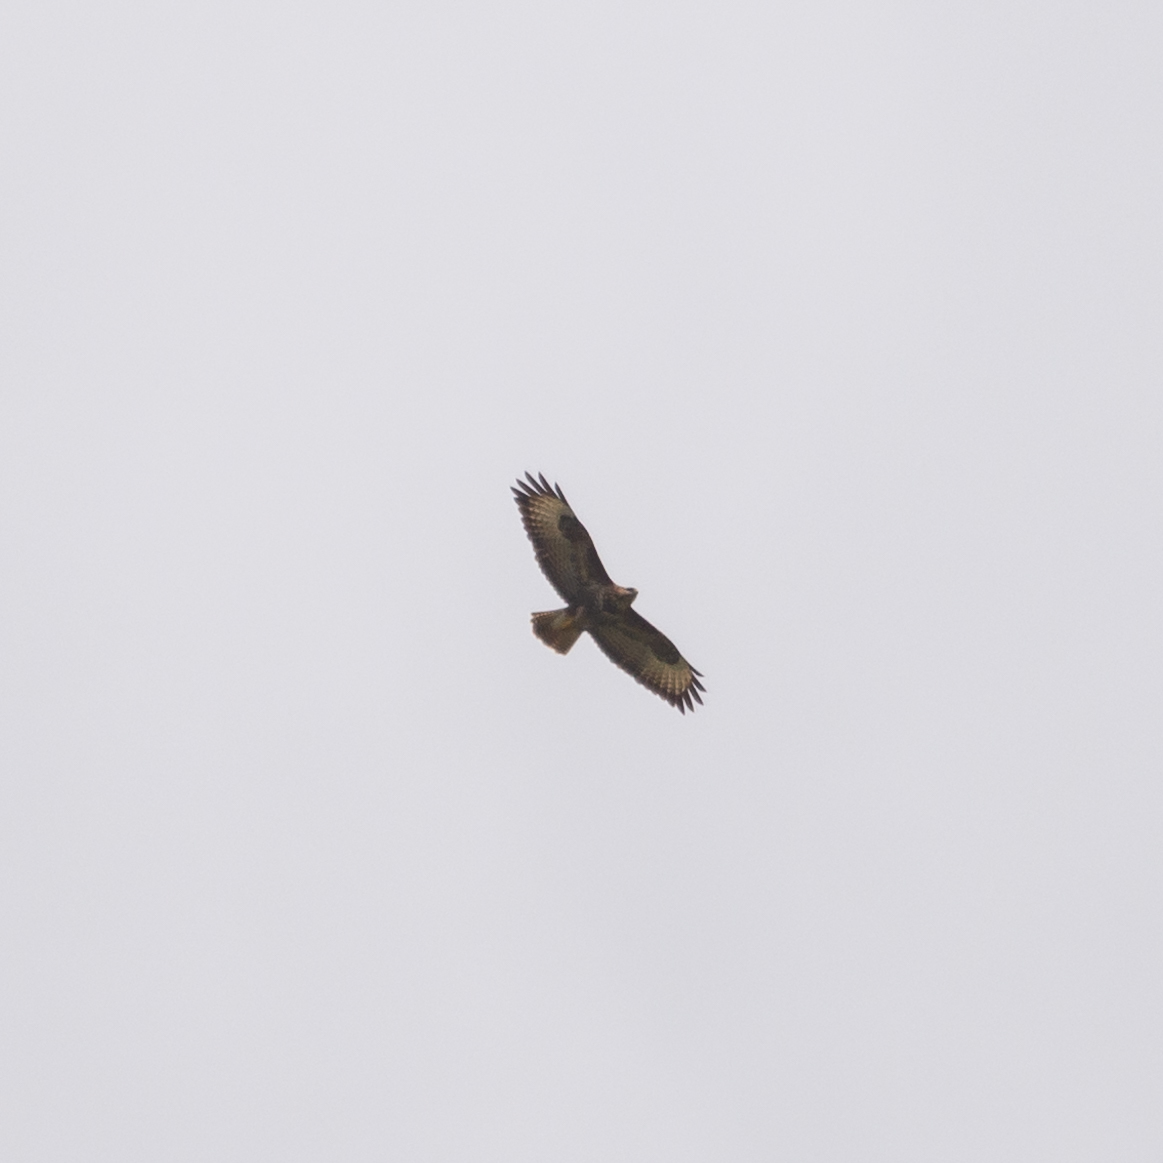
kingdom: Animalia
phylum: Chordata
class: Aves
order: Accipitriformes
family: Accipitridae
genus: Buteo
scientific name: Buteo buteo
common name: Common buzzard
